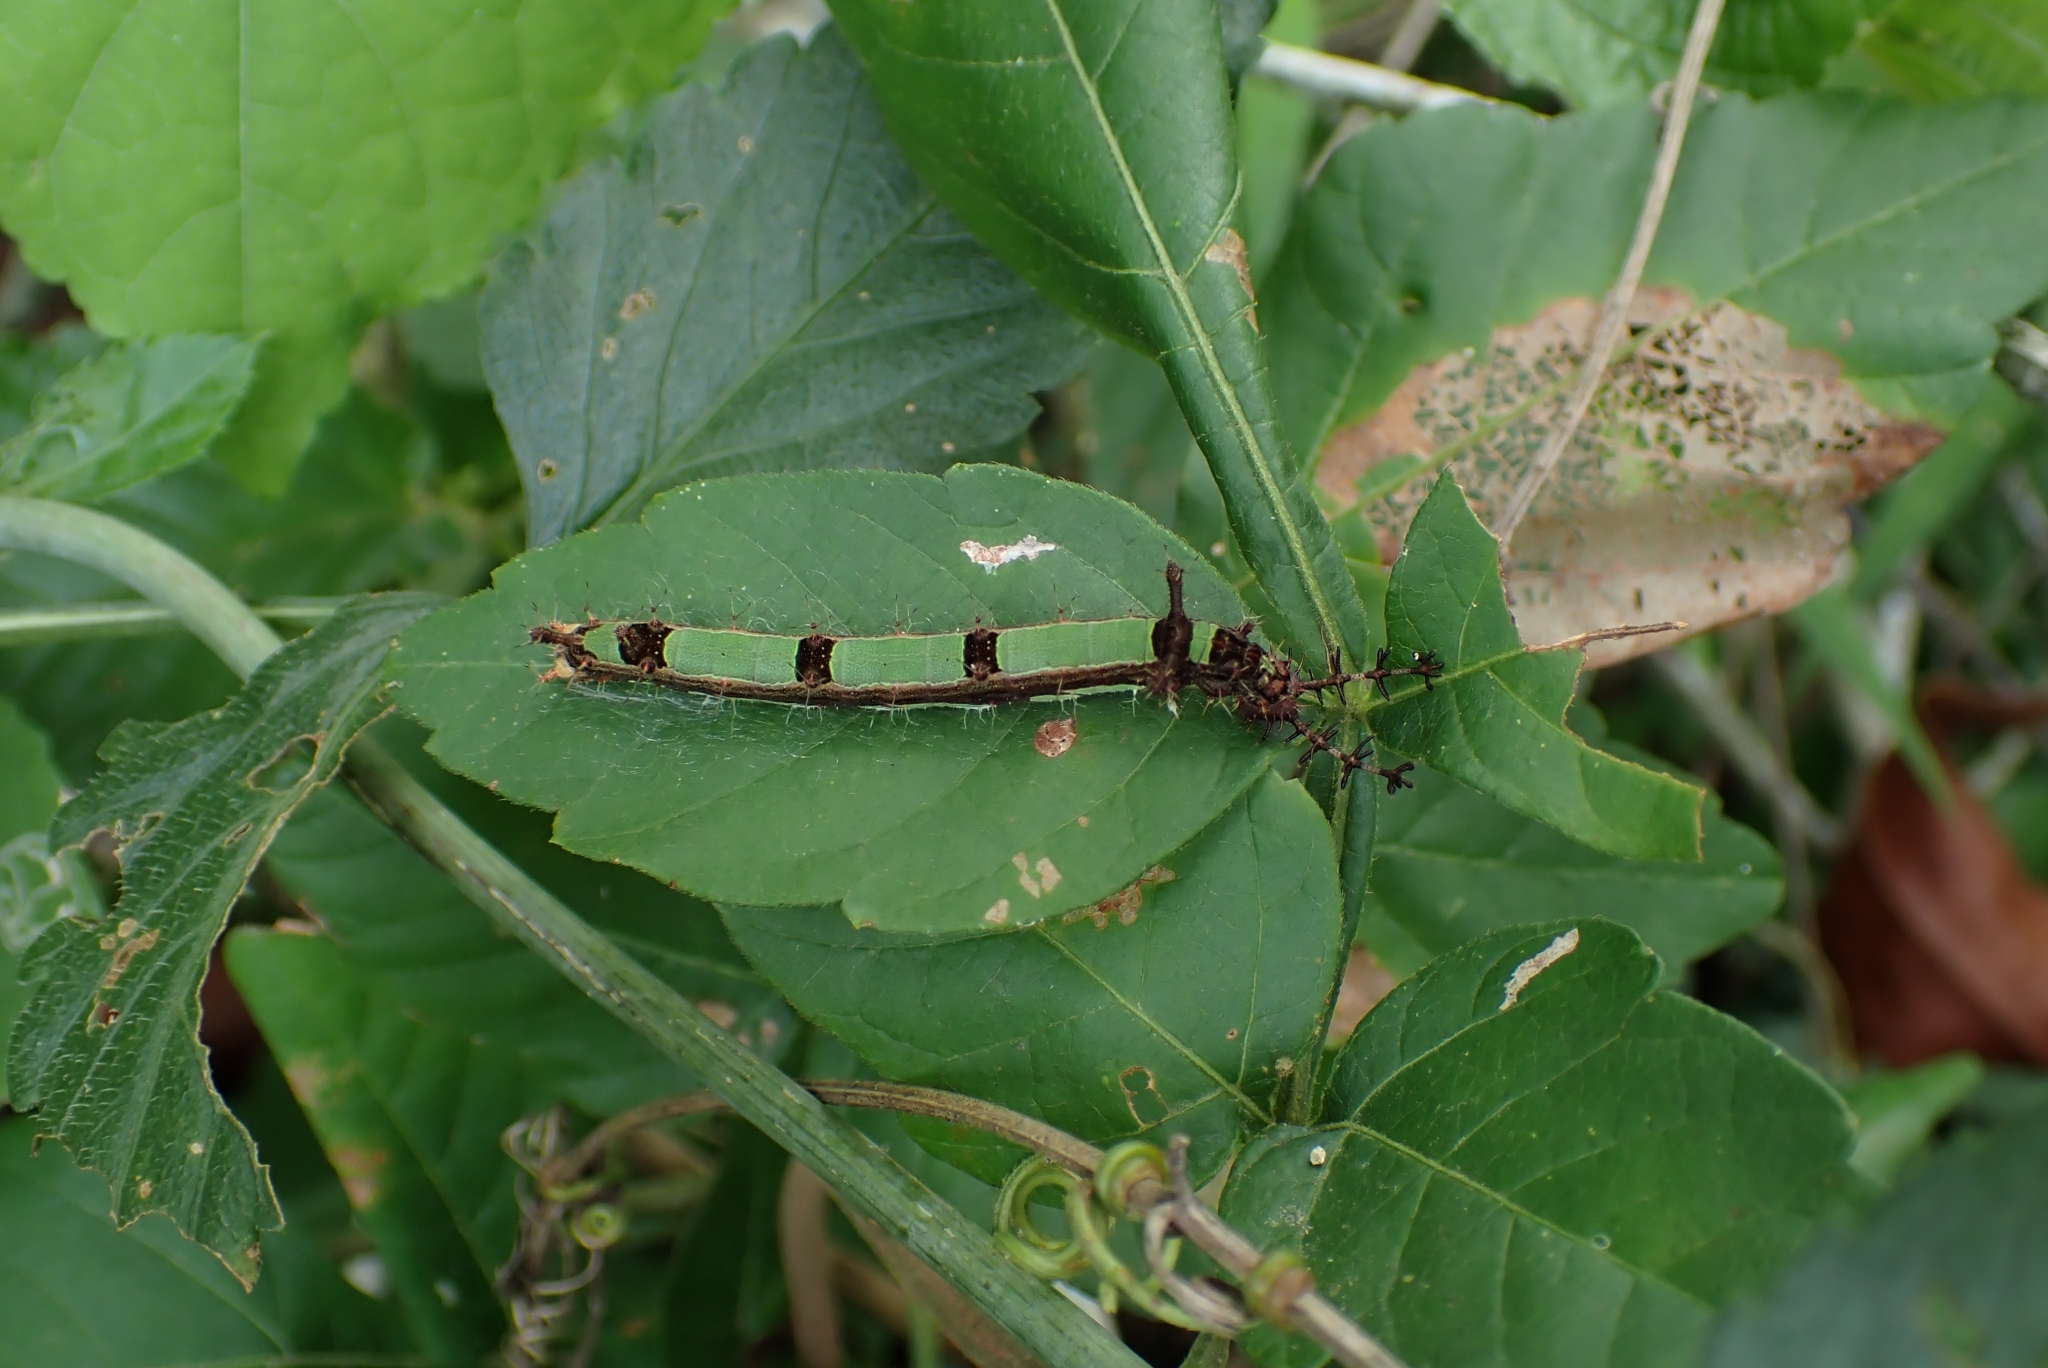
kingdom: Animalia
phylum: Arthropoda
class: Insecta
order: Lepidoptera
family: Nymphalidae
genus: Temenis
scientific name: Temenis laothoe
